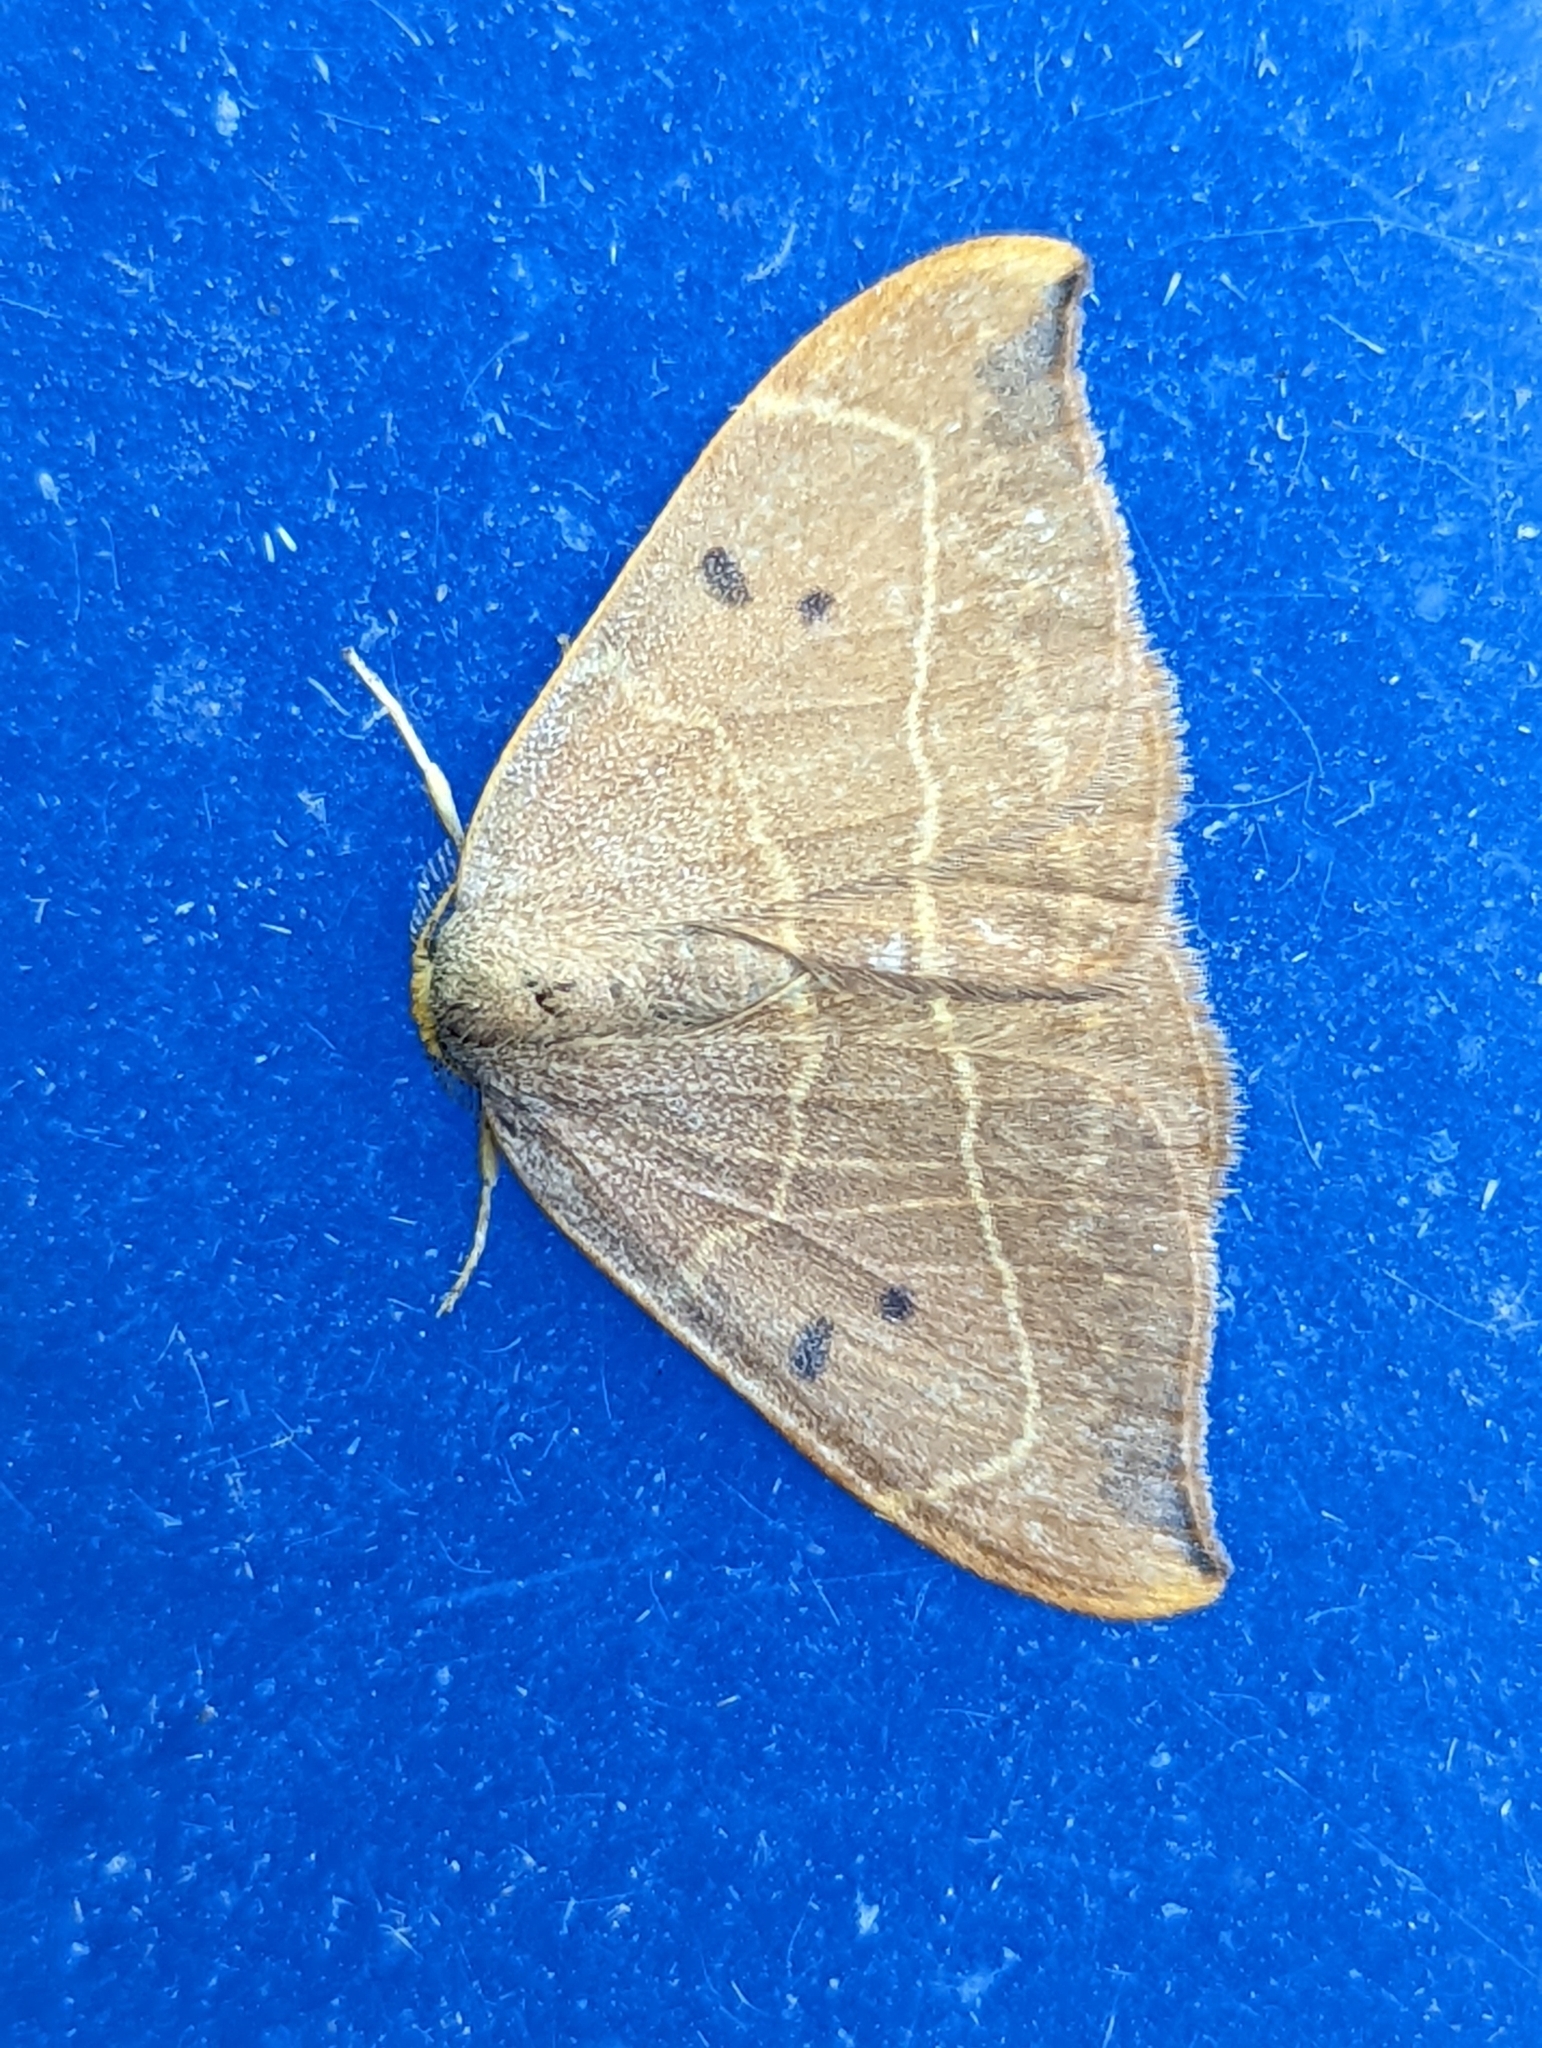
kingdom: Animalia
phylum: Arthropoda
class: Insecta
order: Lepidoptera
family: Drepanidae
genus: Watsonalla
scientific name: Watsonalla binaria
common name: Oak hook-tip
